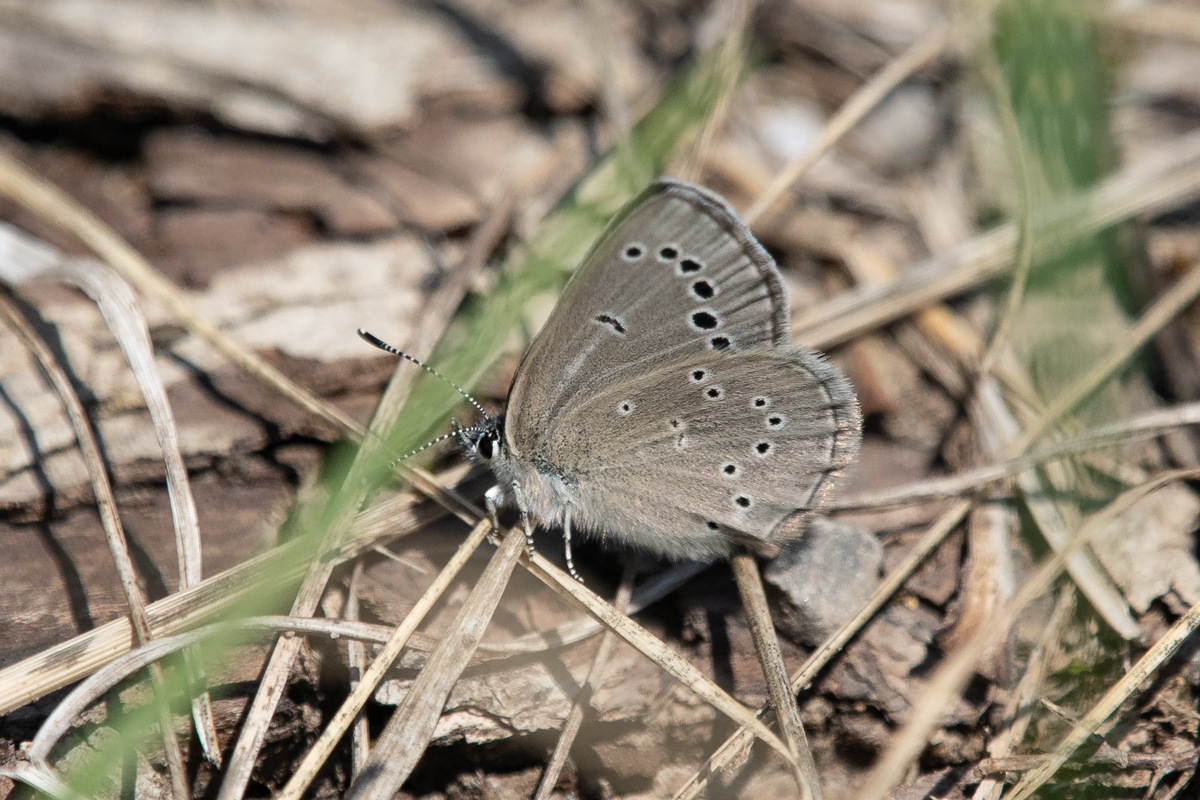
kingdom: Animalia
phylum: Arthropoda
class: Insecta
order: Lepidoptera
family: Lycaenidae
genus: Glaucopsyche
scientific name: Glaucopsyche lygdamus
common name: Silvery blue
